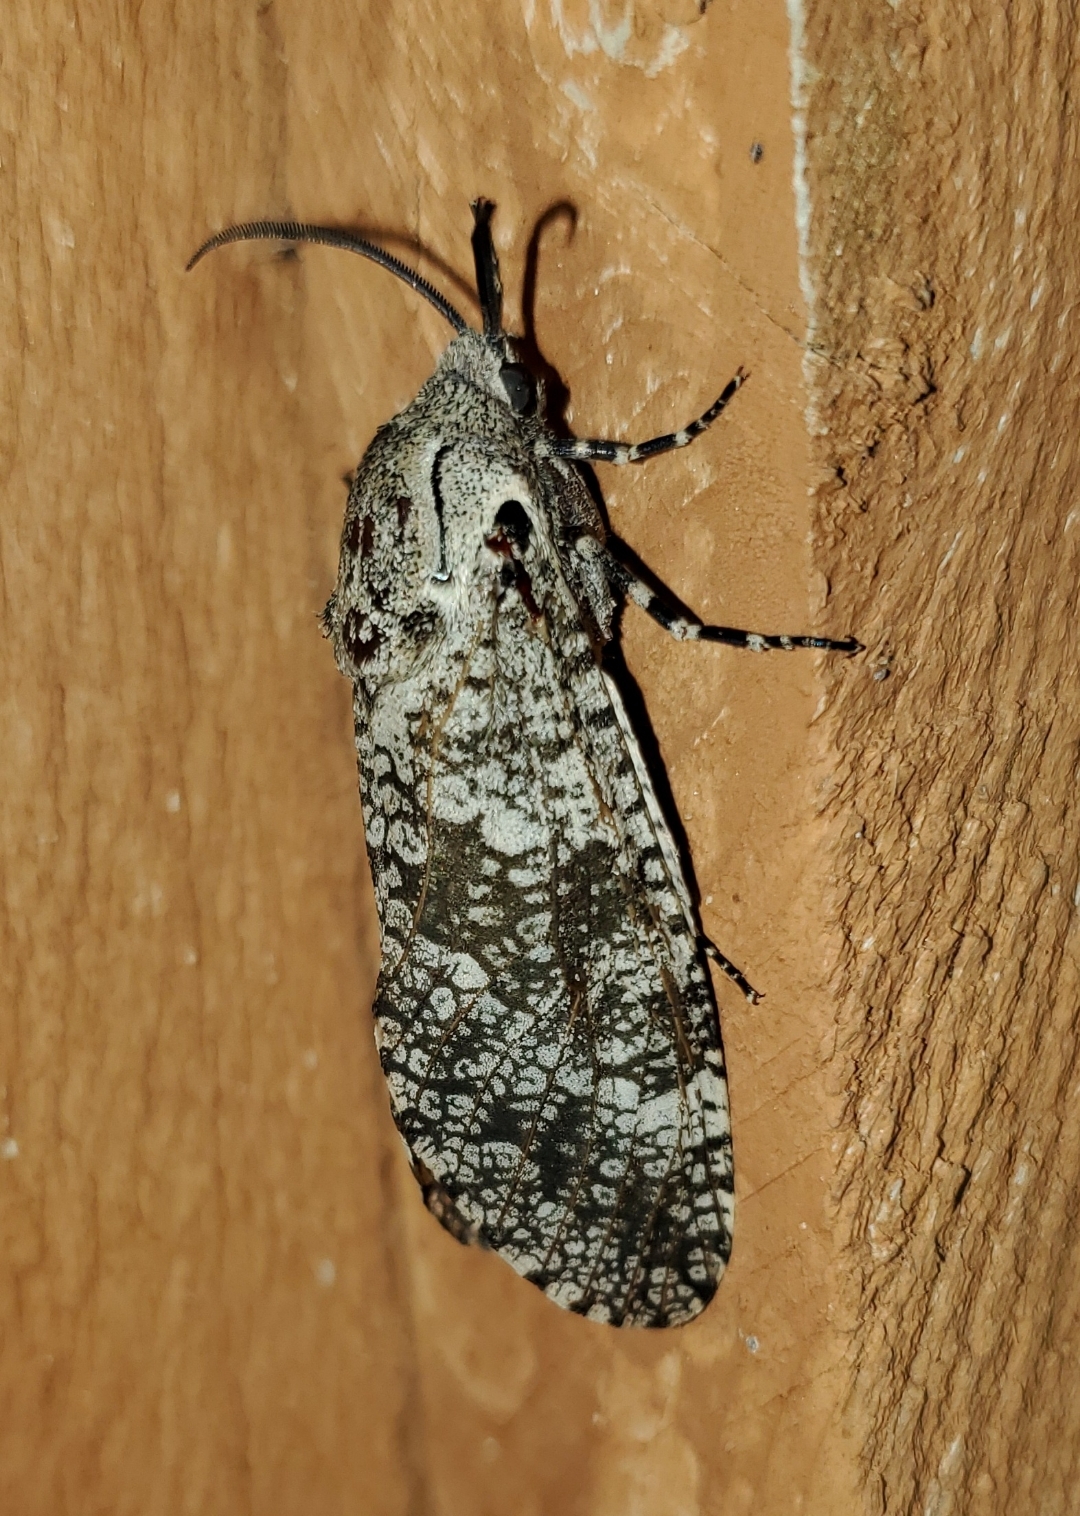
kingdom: Animalia
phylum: Arthropoda
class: Insecta
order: Lepidoptera
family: Cossidae
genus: Prionoxystus
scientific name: Prionoxystus robiniae
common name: Carpenterworm
